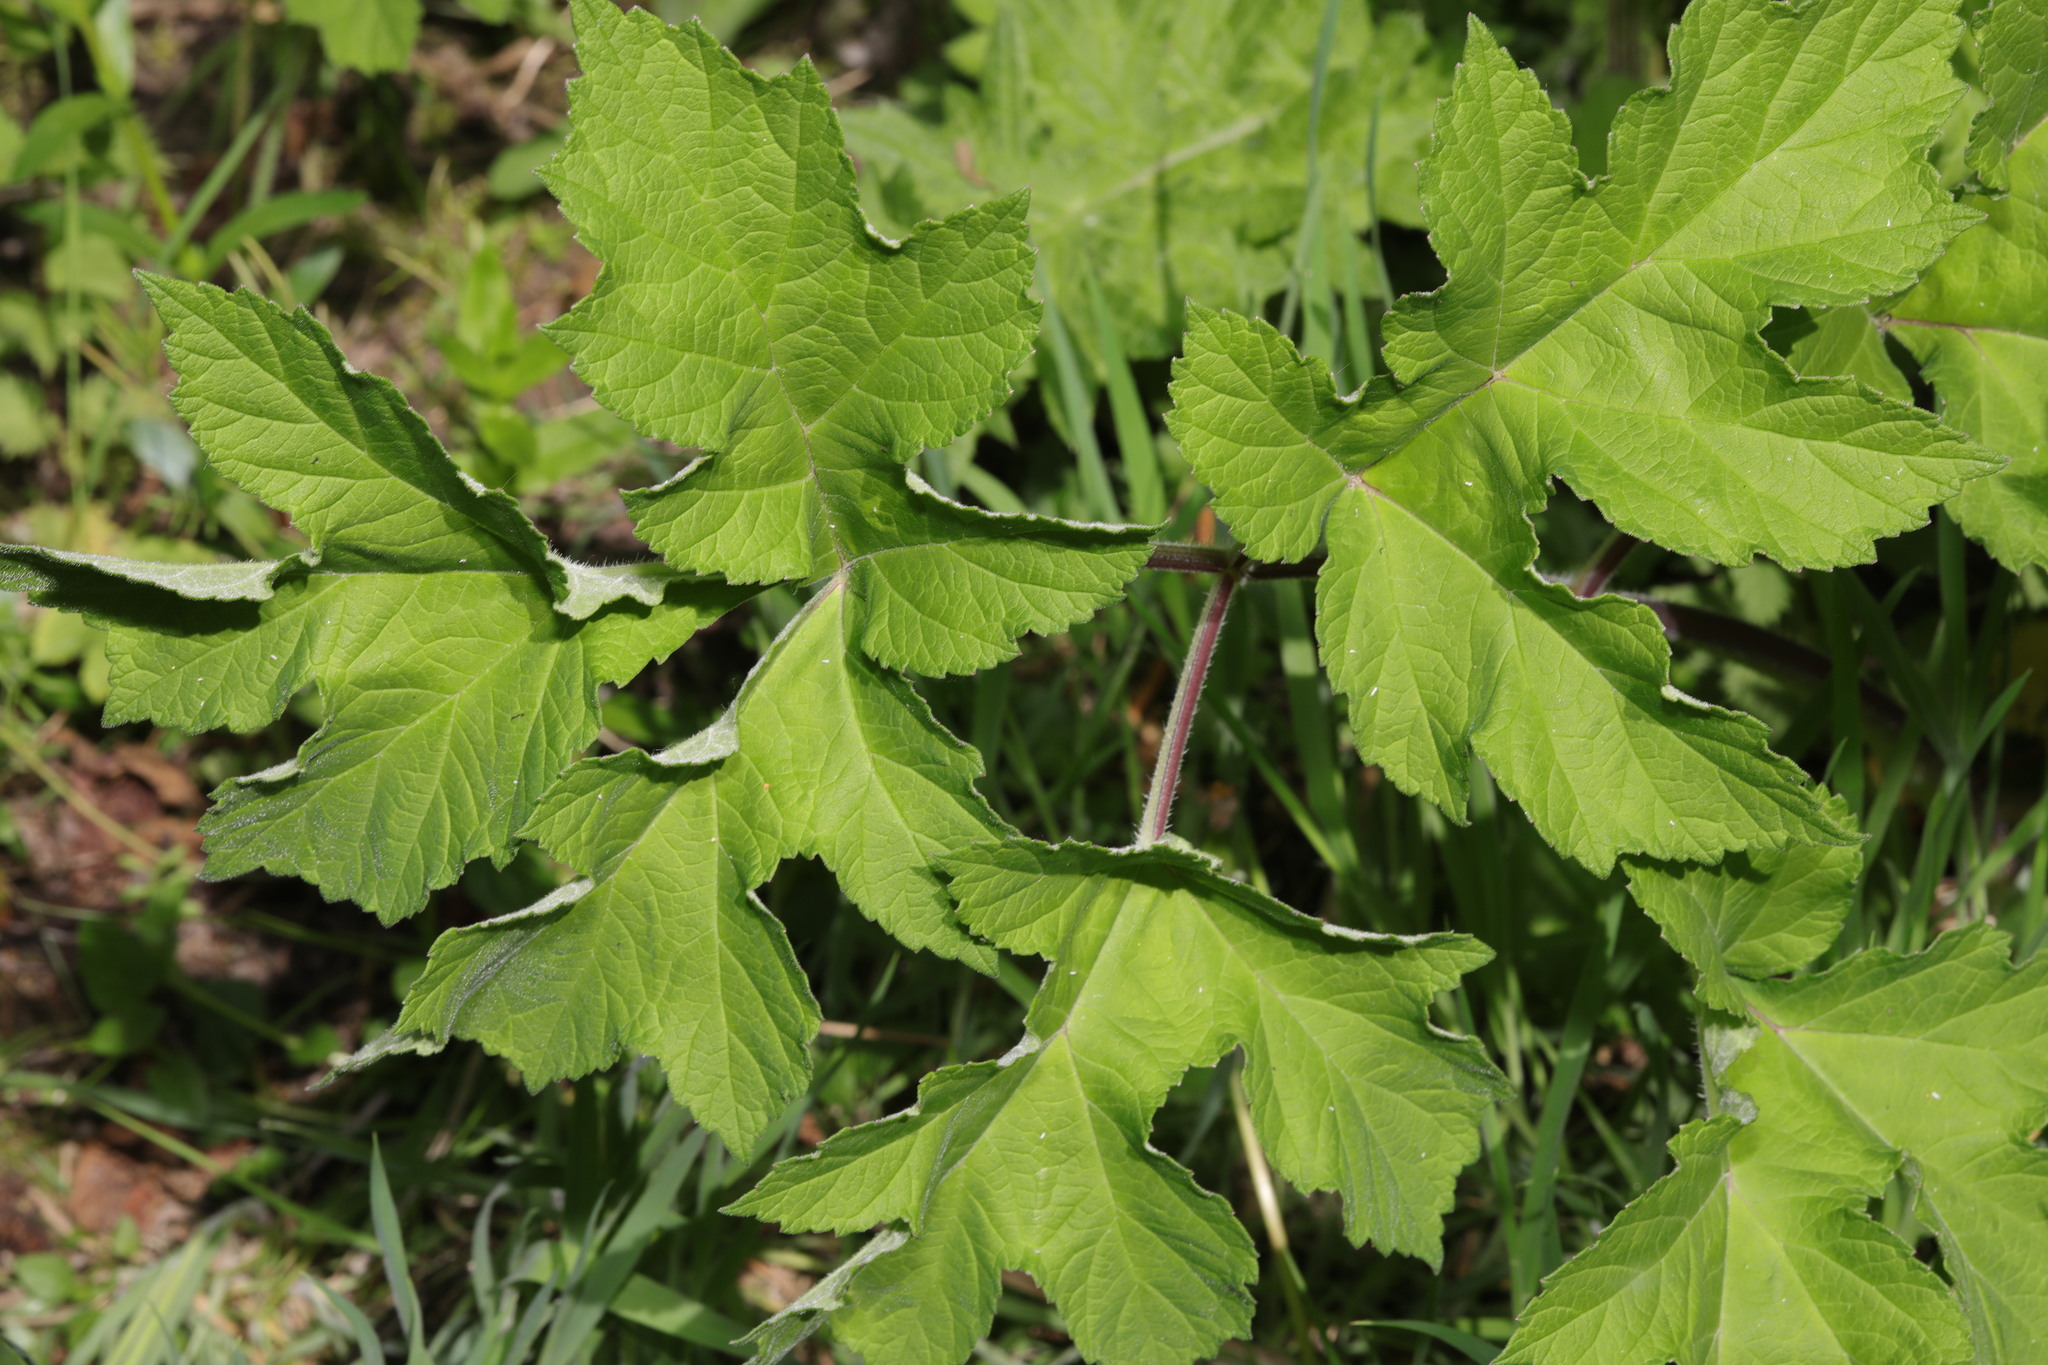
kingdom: Plantae
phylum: Tracheophyta
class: Magnoliopsida
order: Apiales
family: Apiaceae
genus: Heracleum
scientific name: Heracleum sphondylium
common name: Hogweed
